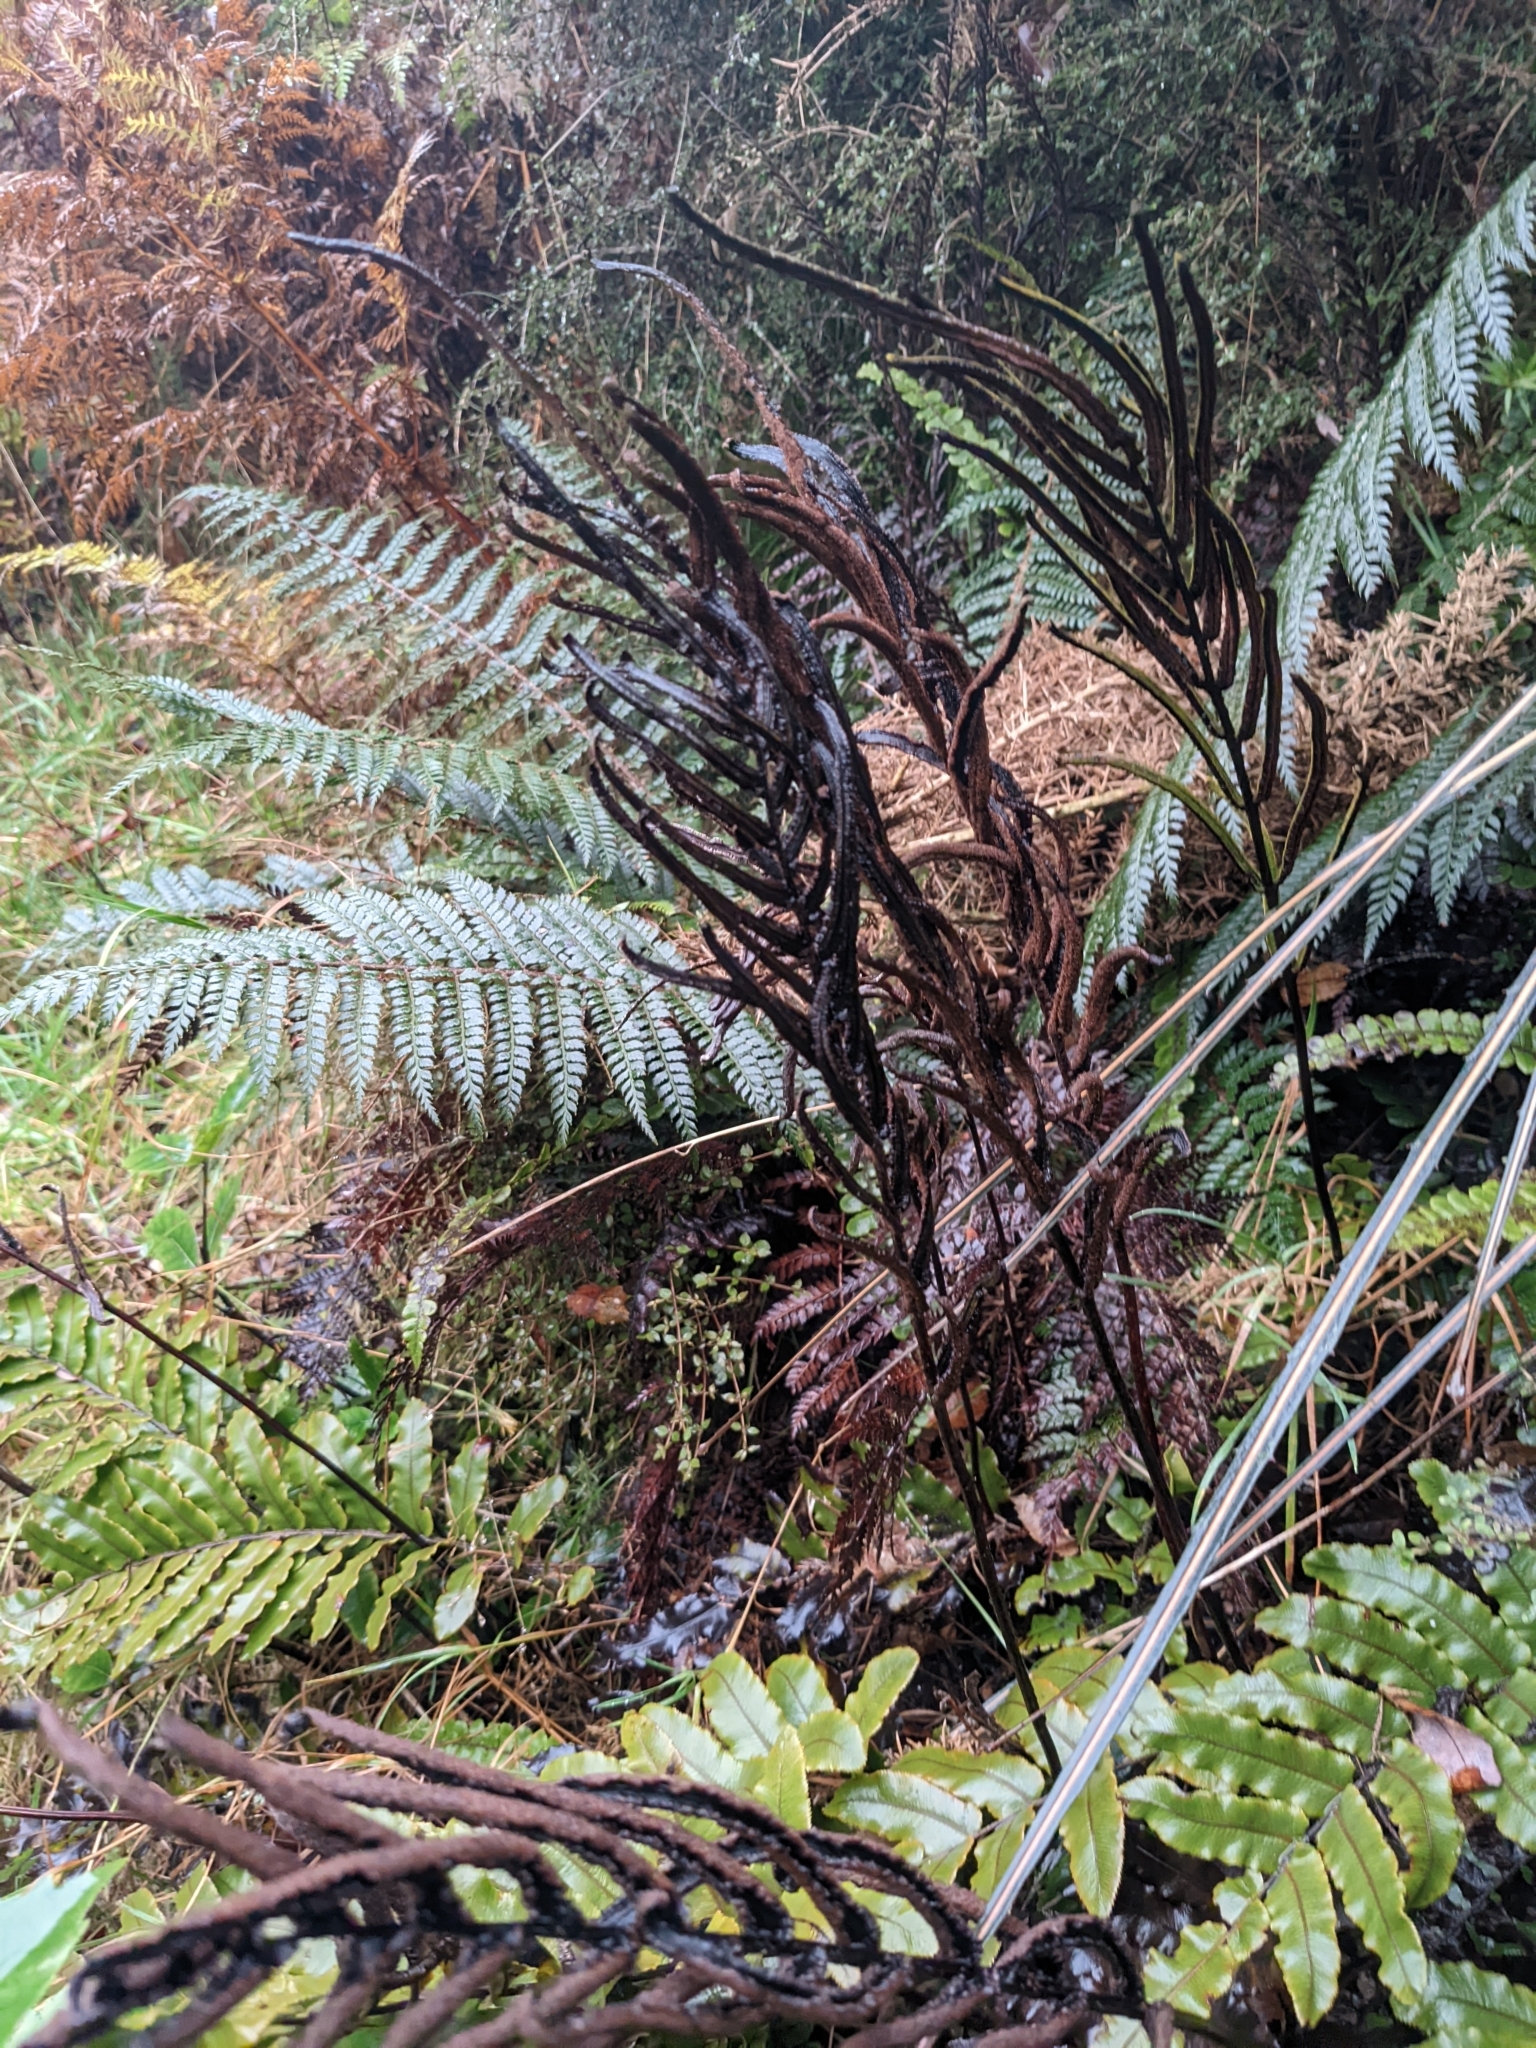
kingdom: Plantae
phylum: Tracheophyta
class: Polypodiopsida
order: Polypodiales
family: Blechnaceae
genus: Parablechnum
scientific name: Parablechnum procerum
